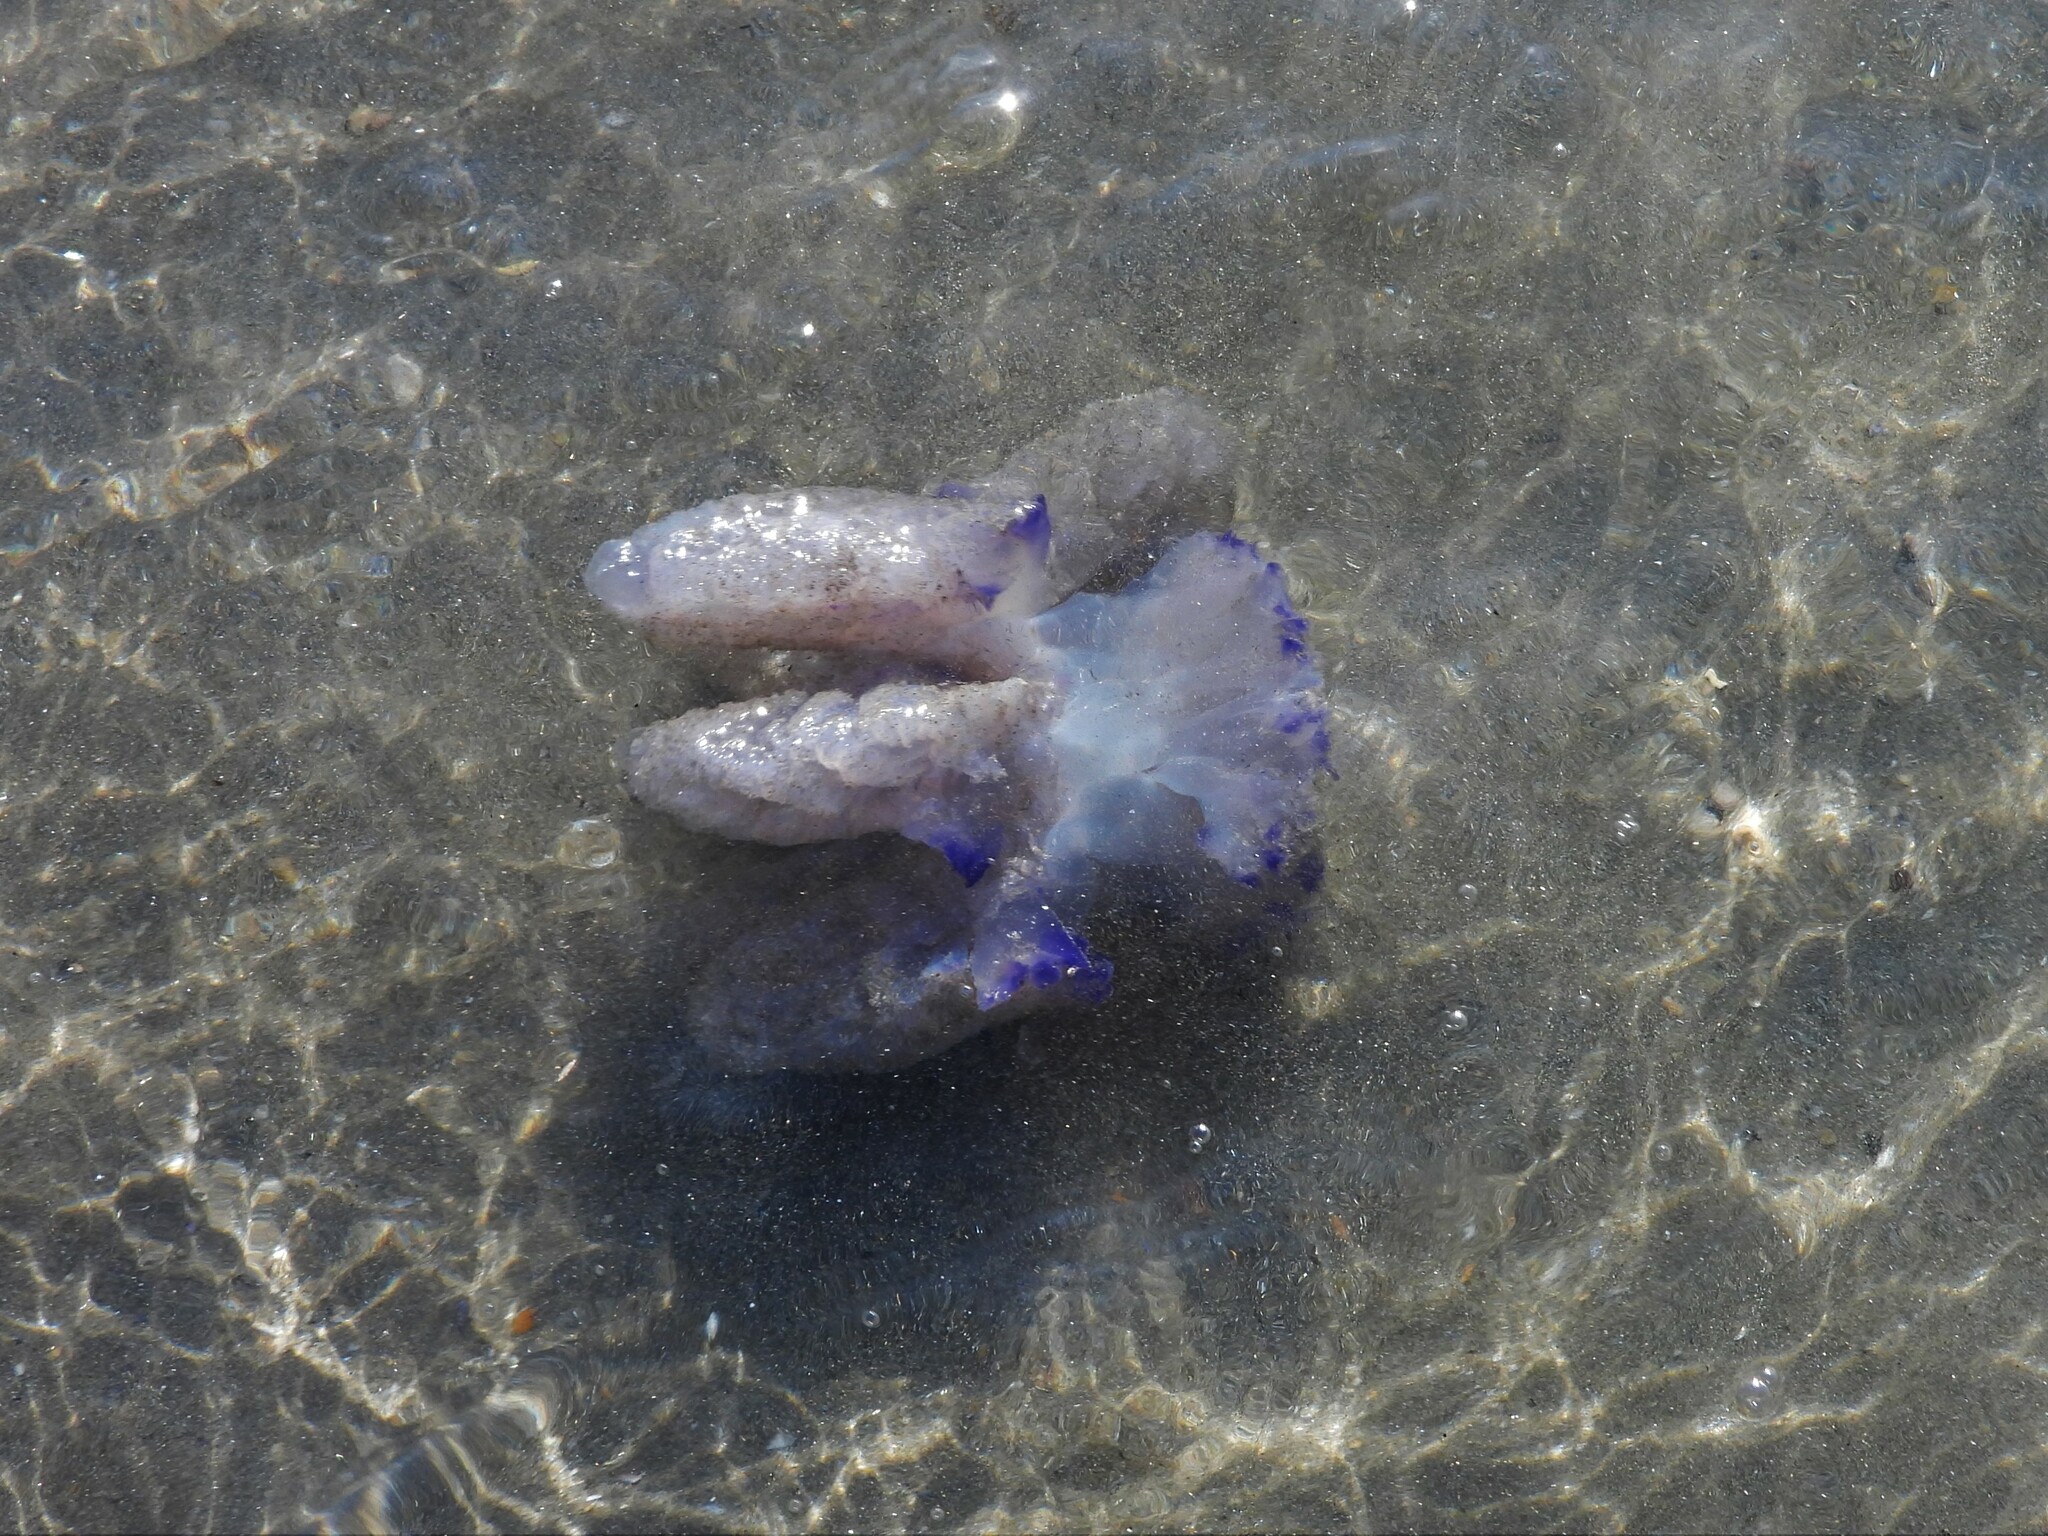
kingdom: Animalia
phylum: Cnidaria
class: Scyphozoa
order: Rhizostomeae
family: Rhizostomatidae
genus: Rhizostoma
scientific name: Rhizostoma pulmo
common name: Barrel jellyfish
